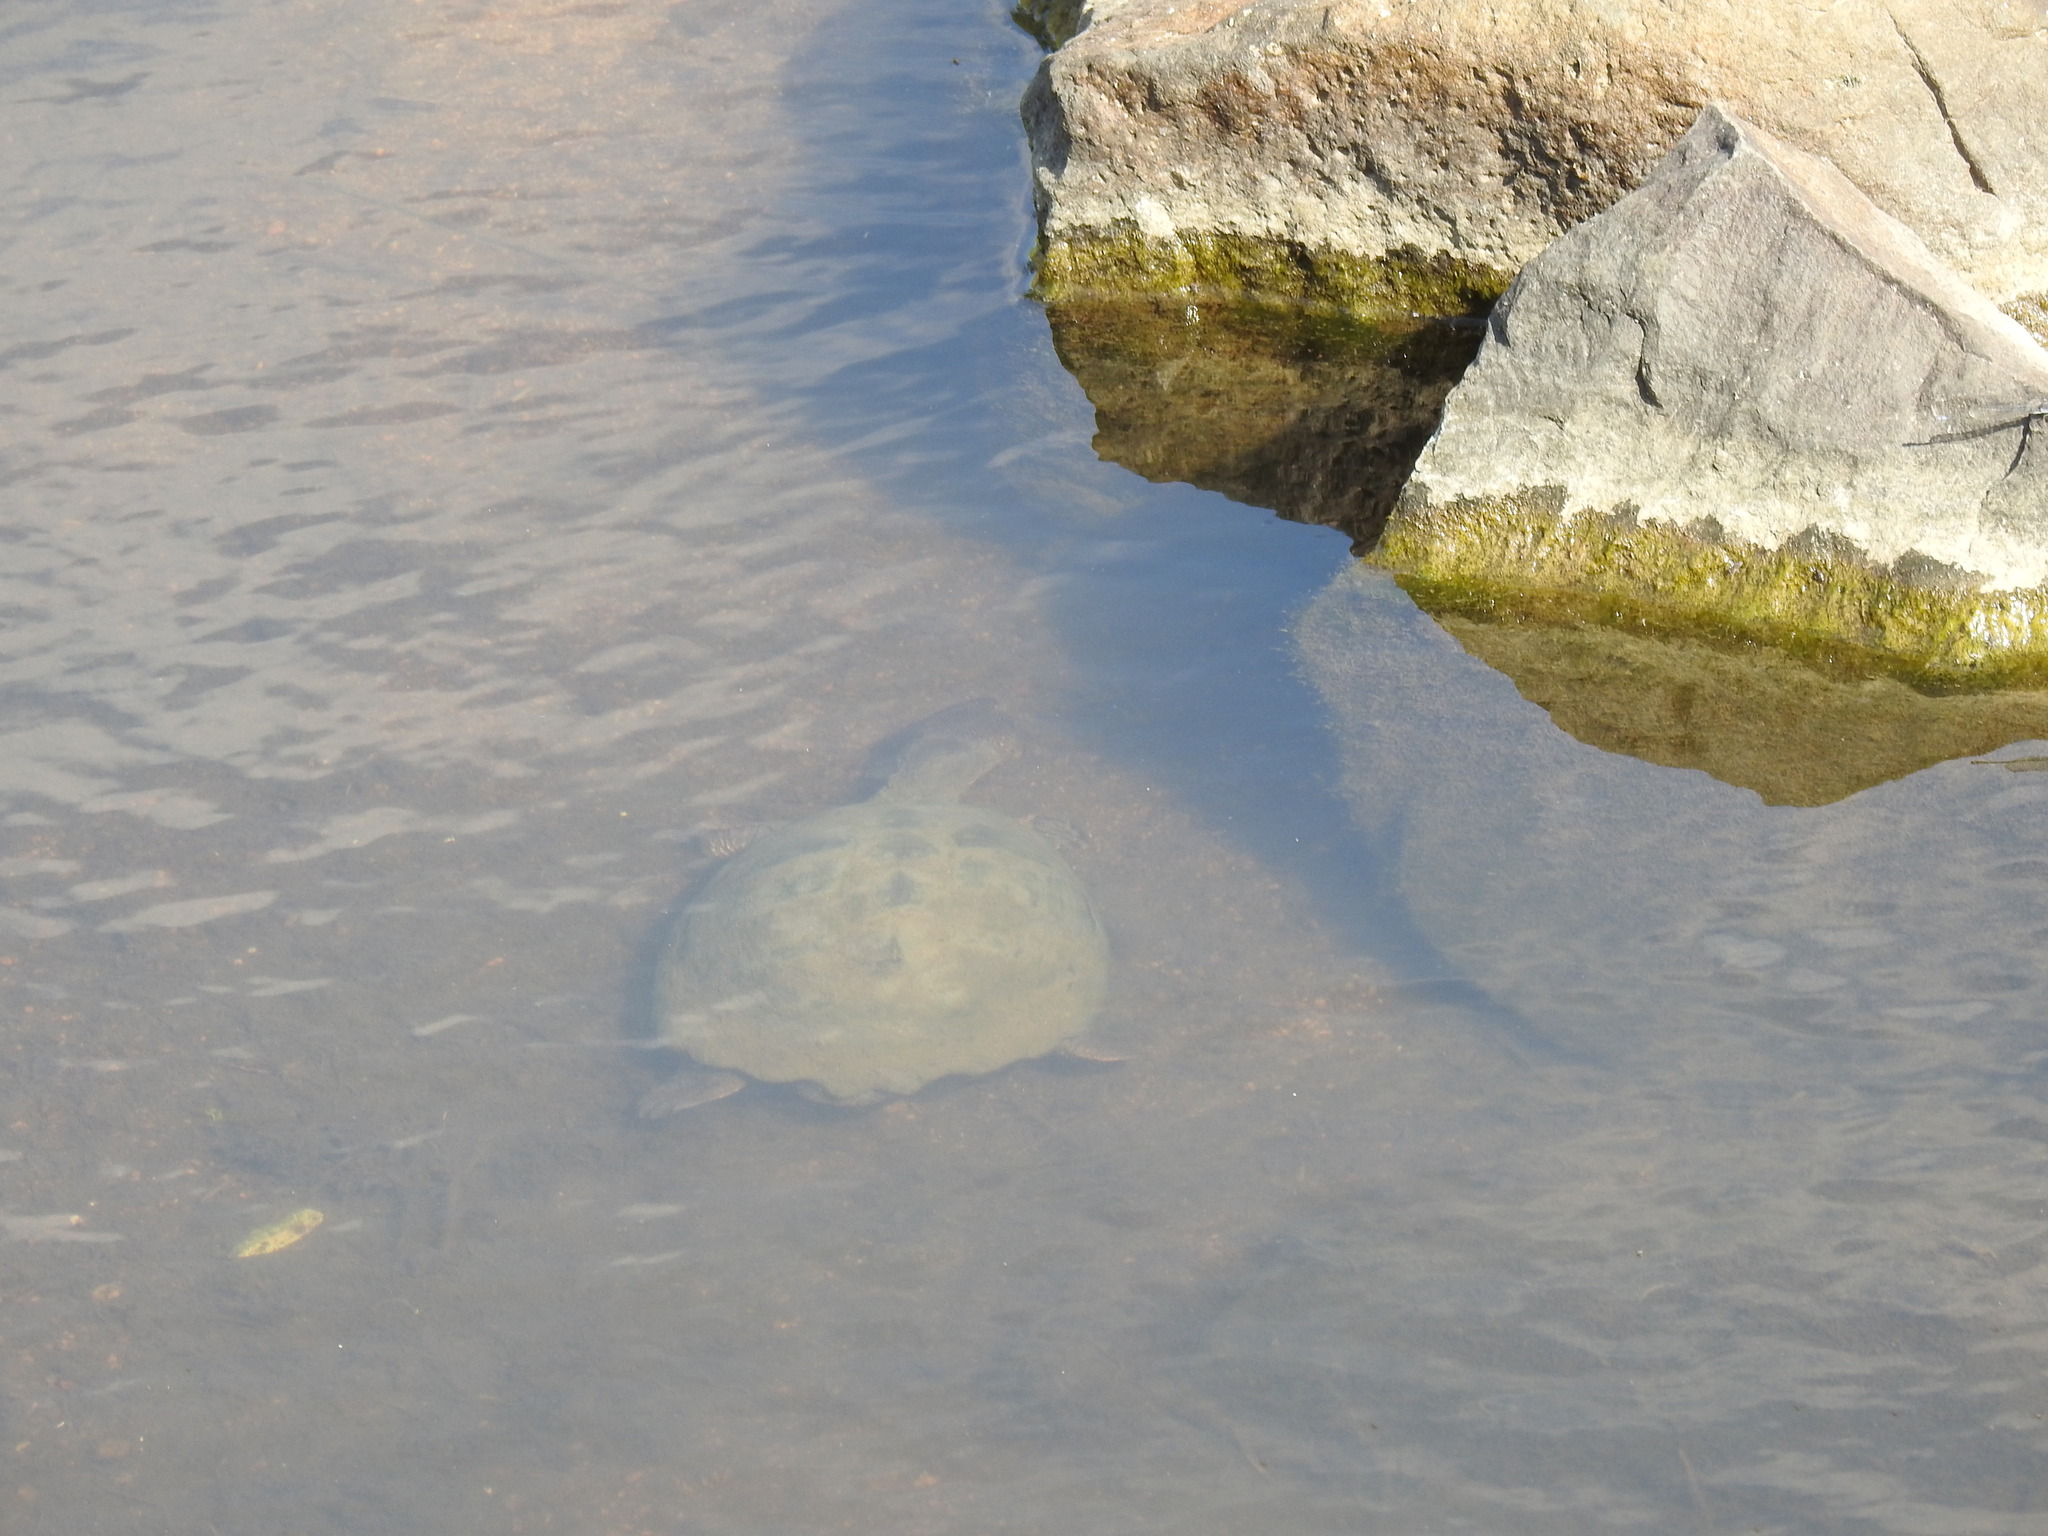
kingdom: Animalia
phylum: Chordata
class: Testudines
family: Pelomedusidae
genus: Pelusios
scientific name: Pelusios sinuatus
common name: Serrated hinged terrapin
